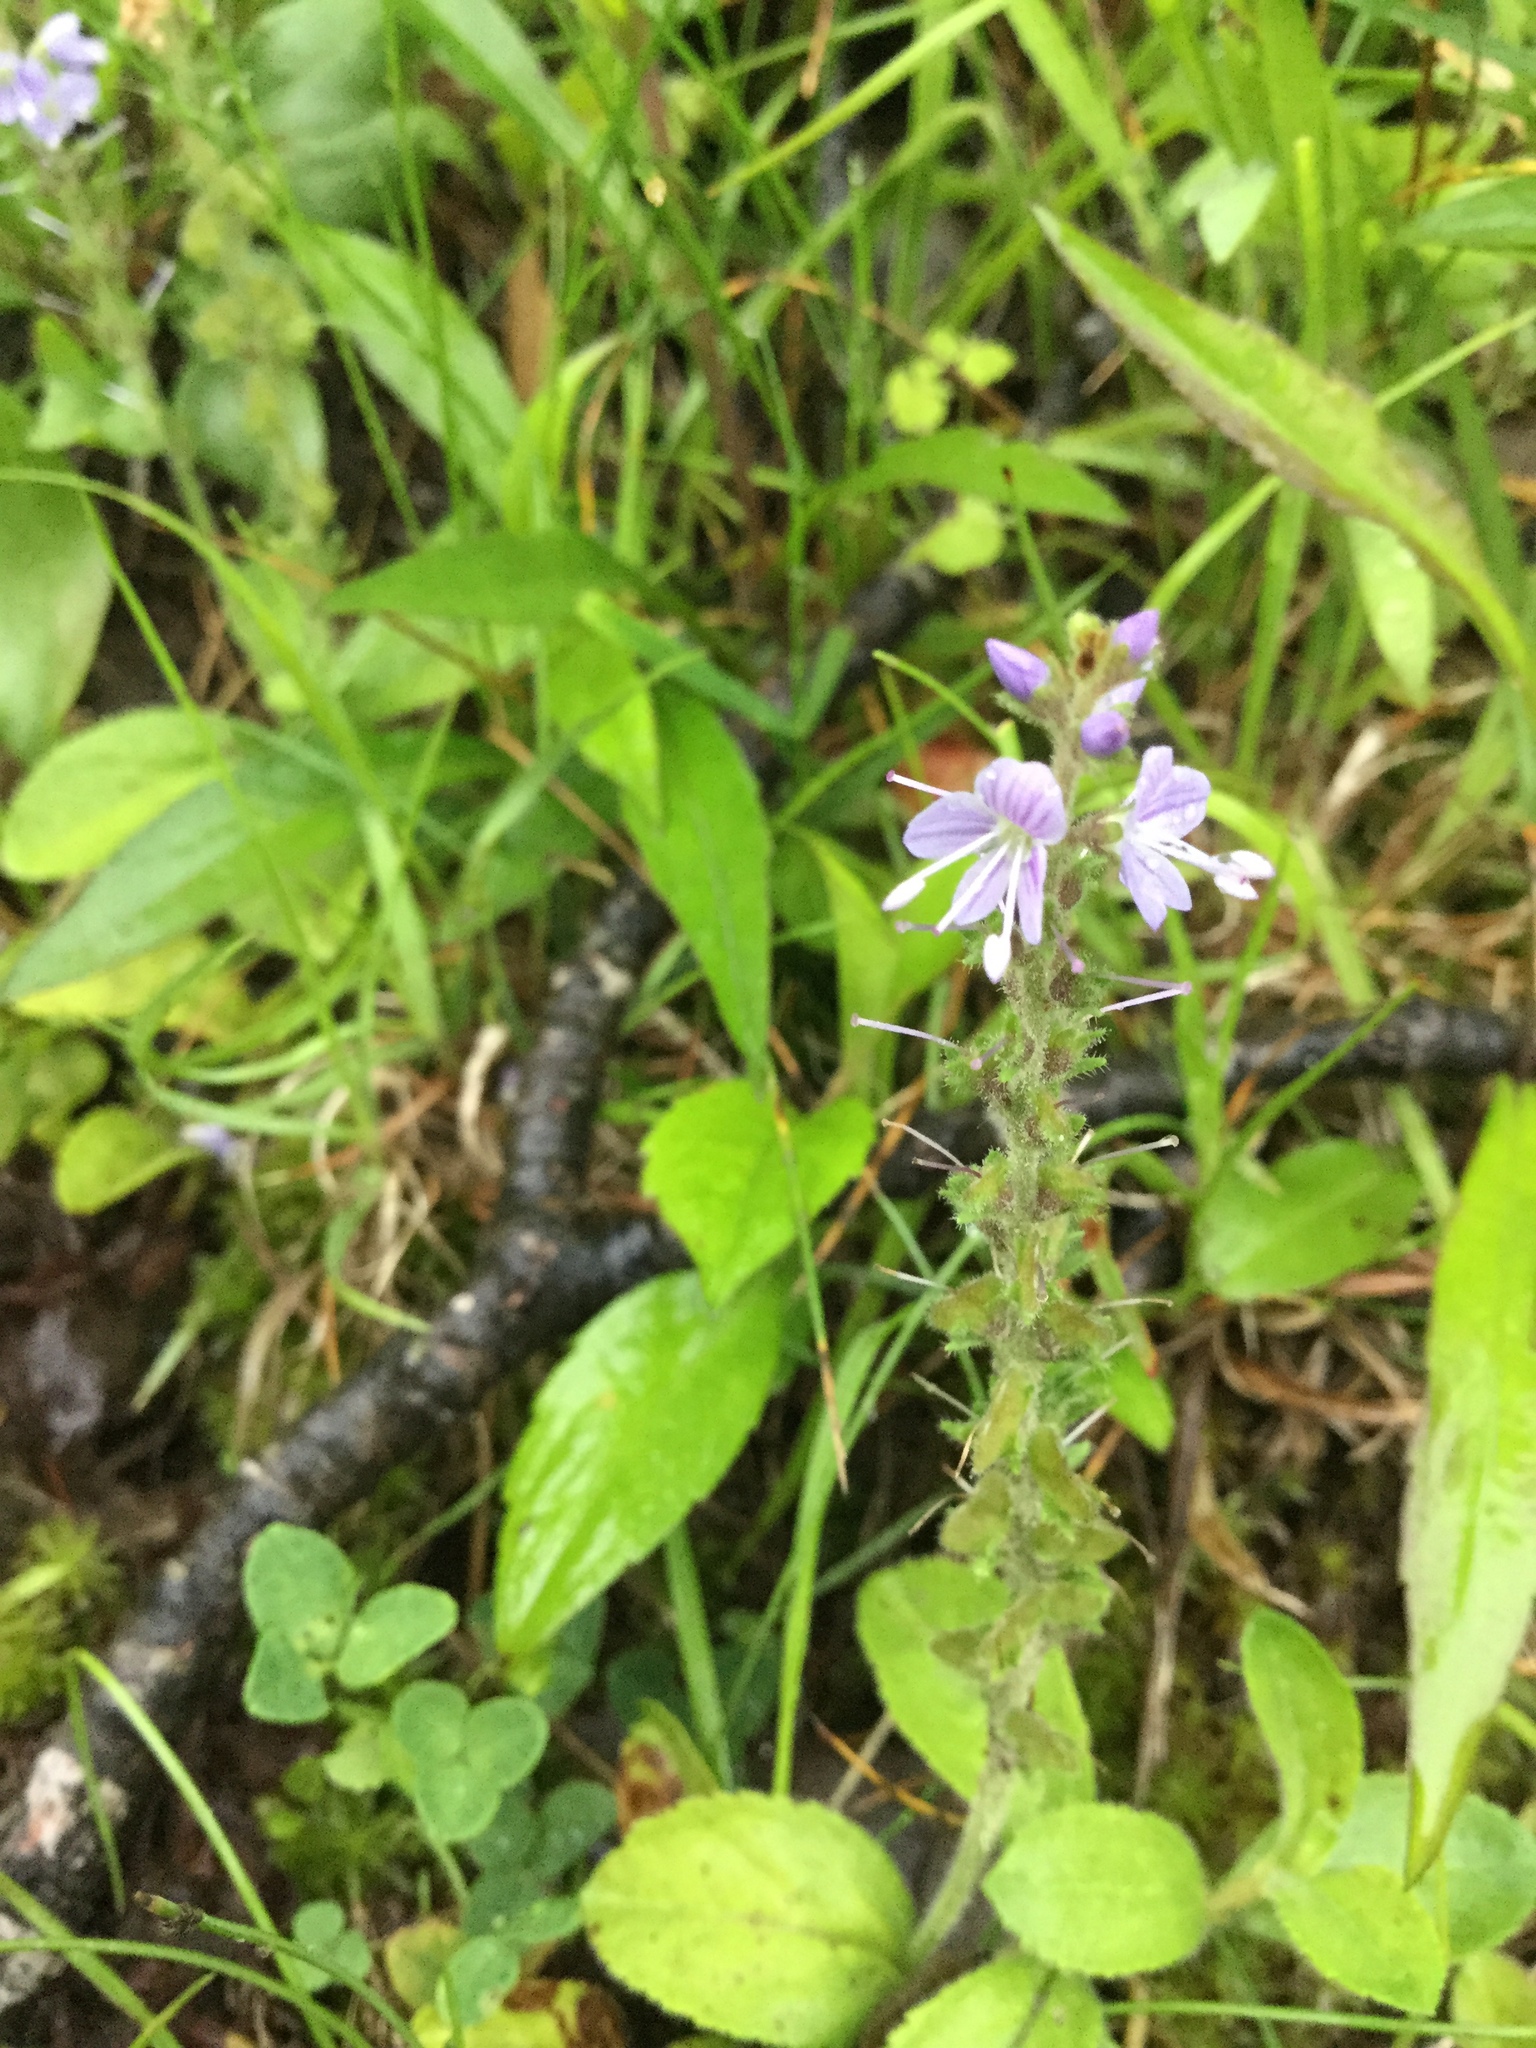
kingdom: Plantae
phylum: Tracheophyta
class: Magnoliopsida
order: Lamiales
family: Plantaginaceae
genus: Veronica
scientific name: Veronica officinalis
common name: Common speedwell
